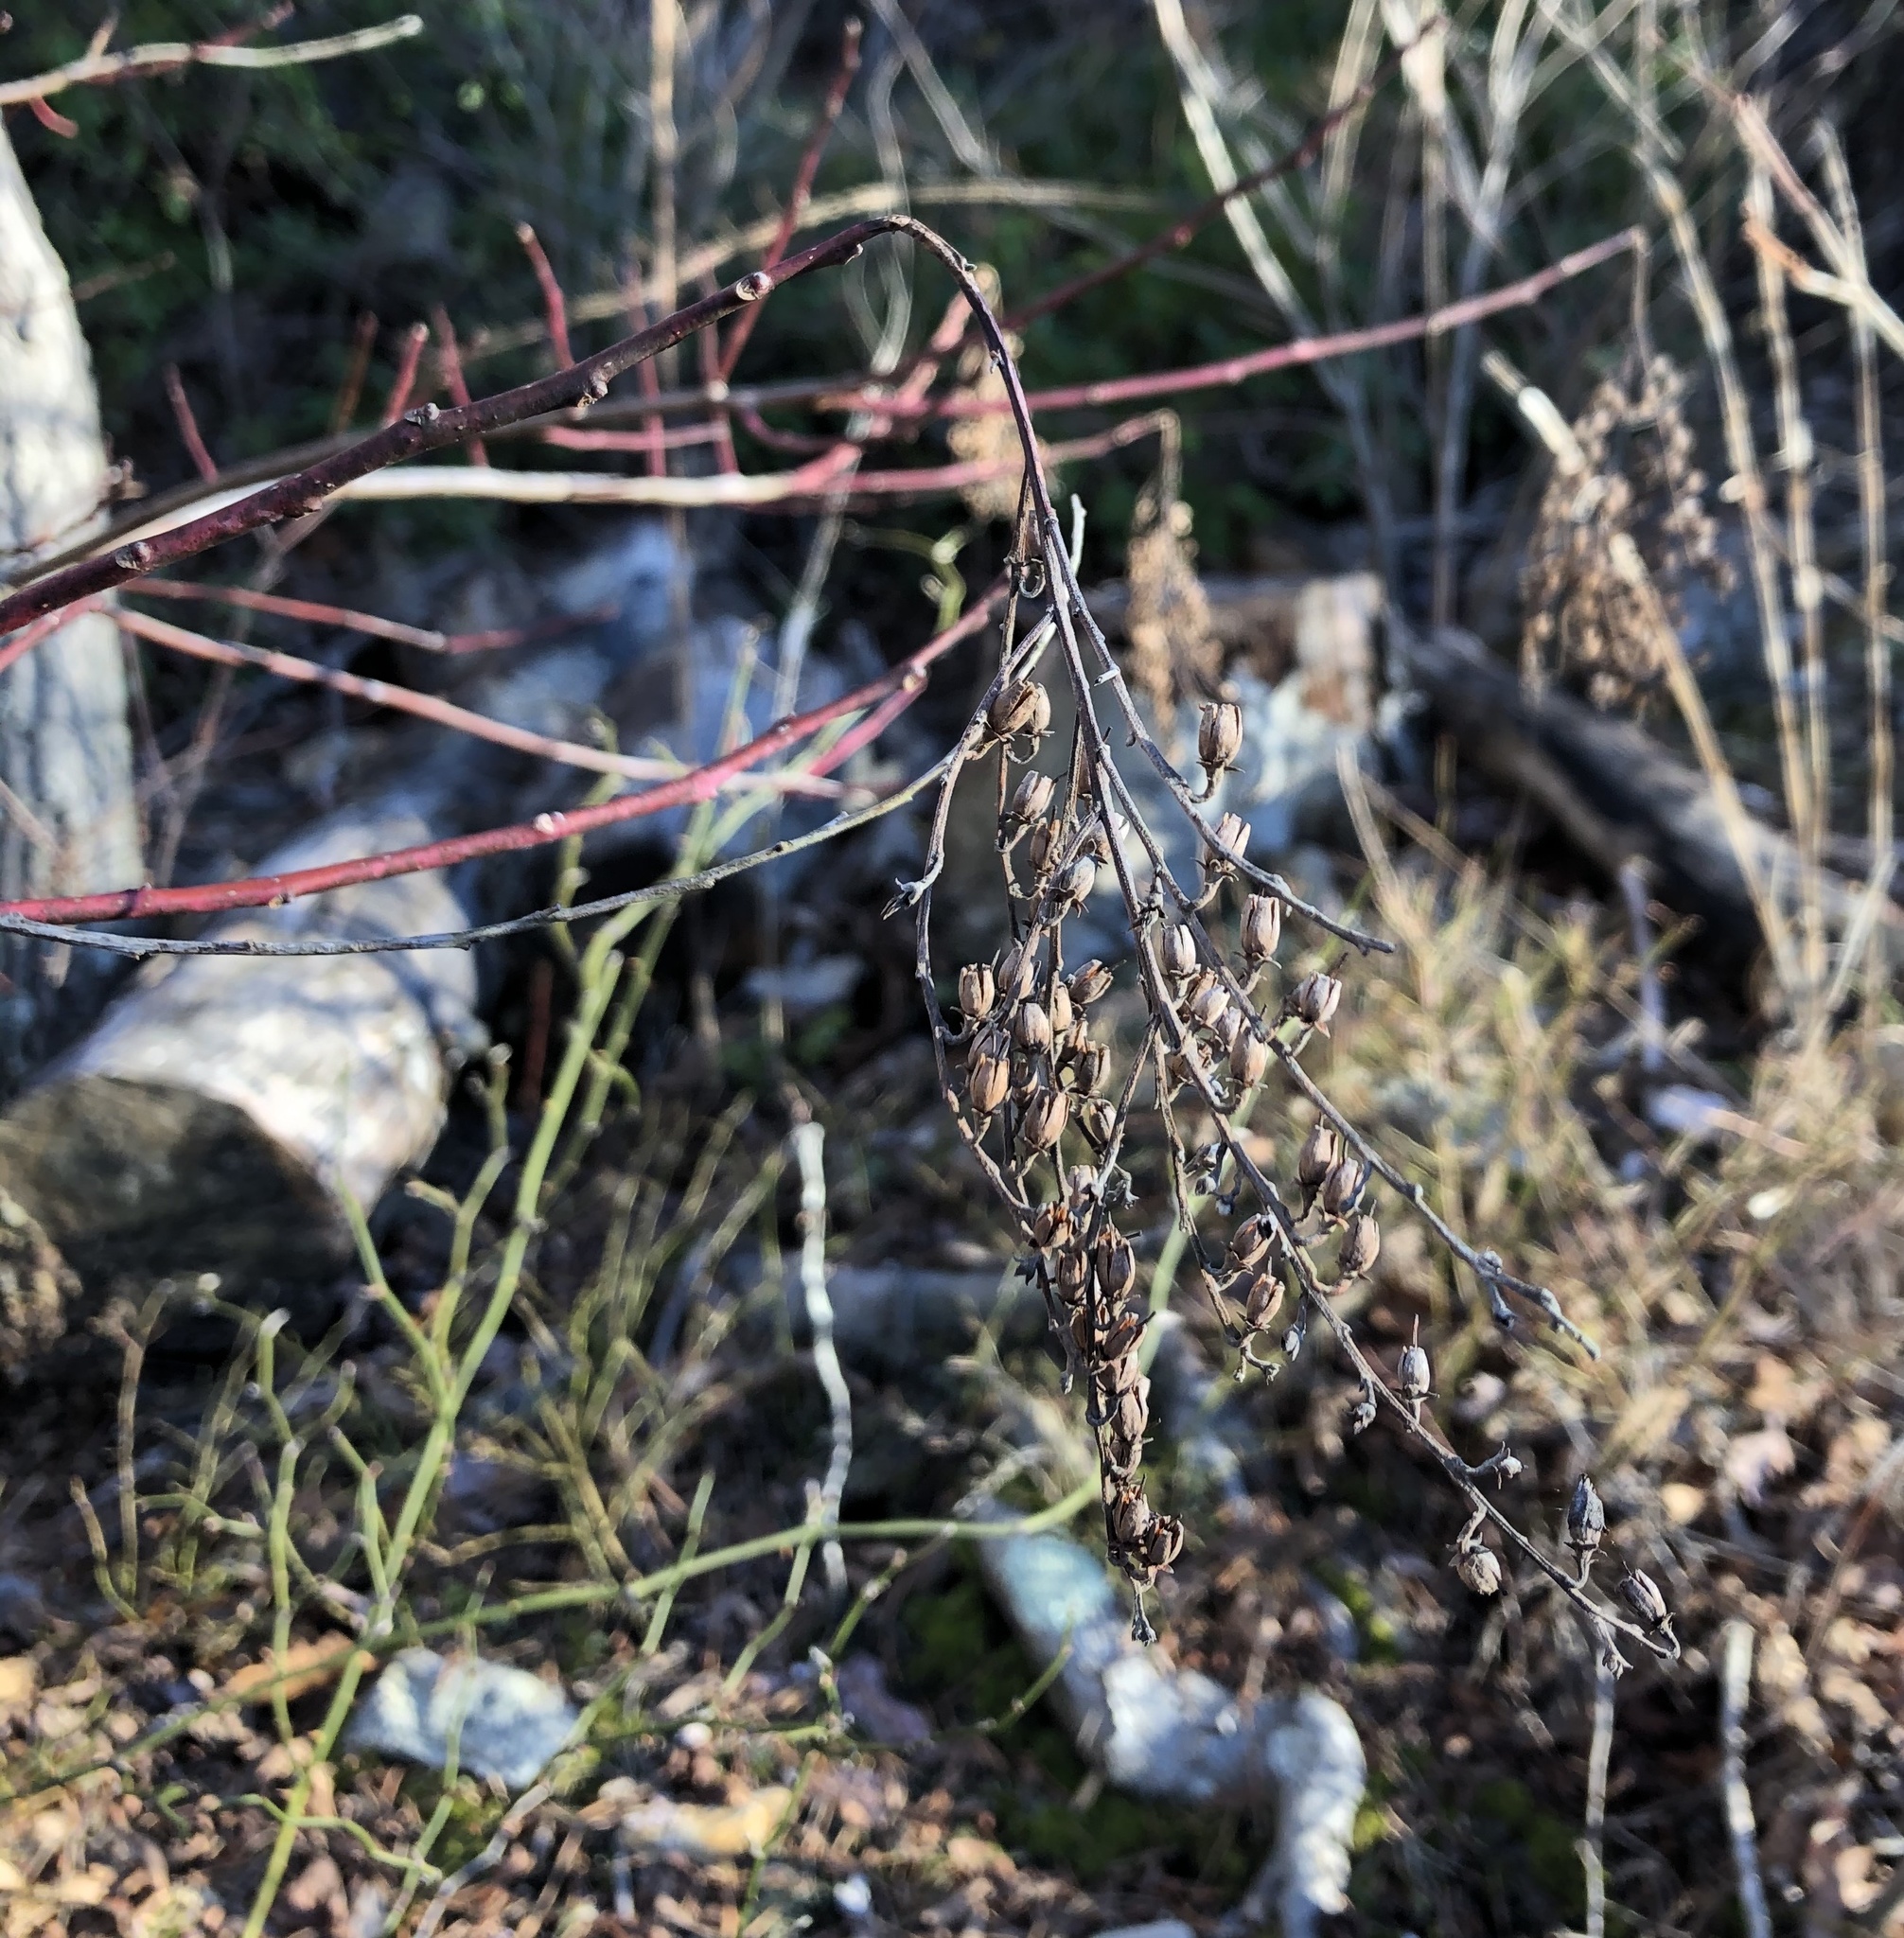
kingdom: Plantae
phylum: Tracheophyta
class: Magnoliopsida
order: Ericales
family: Ericaceae
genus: Oxydendrum
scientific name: Oxydendrum arboreum
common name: Sourwood
